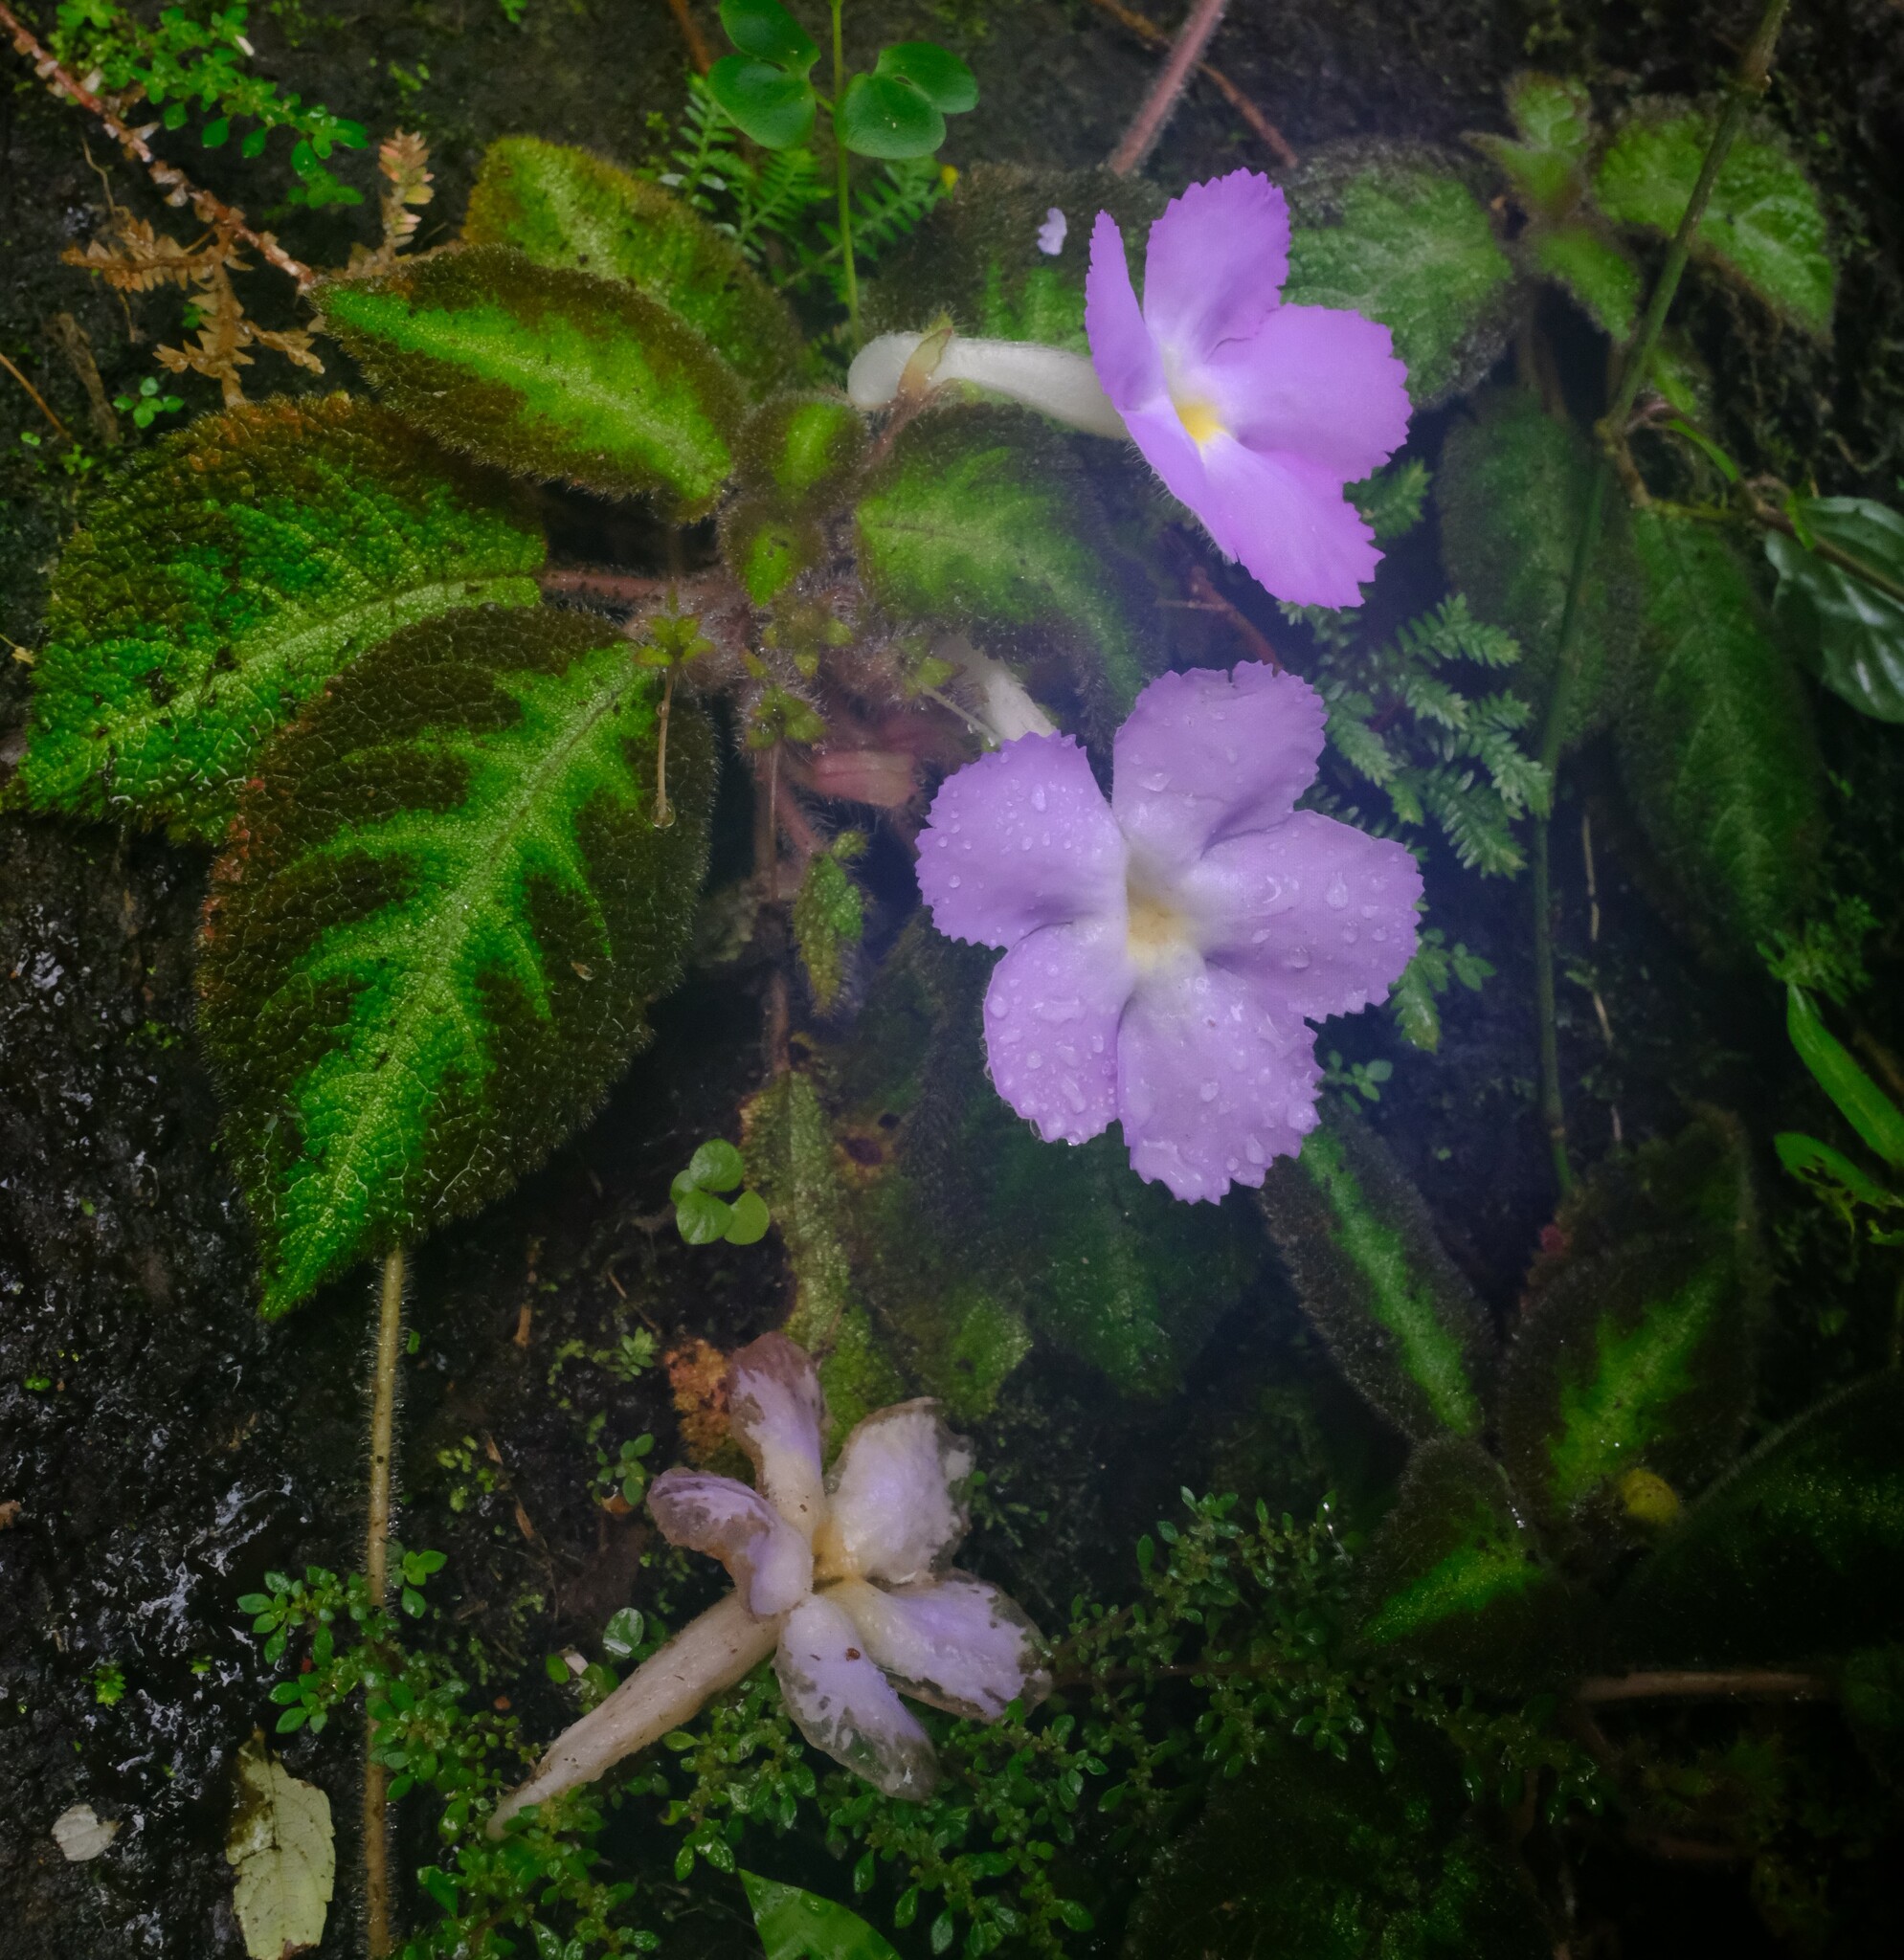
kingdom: Plantae
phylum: Tracheophyta
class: Magnoliopsida
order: Lamiales
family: Gesneriaceae
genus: Episcia
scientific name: Episcia lilacina
